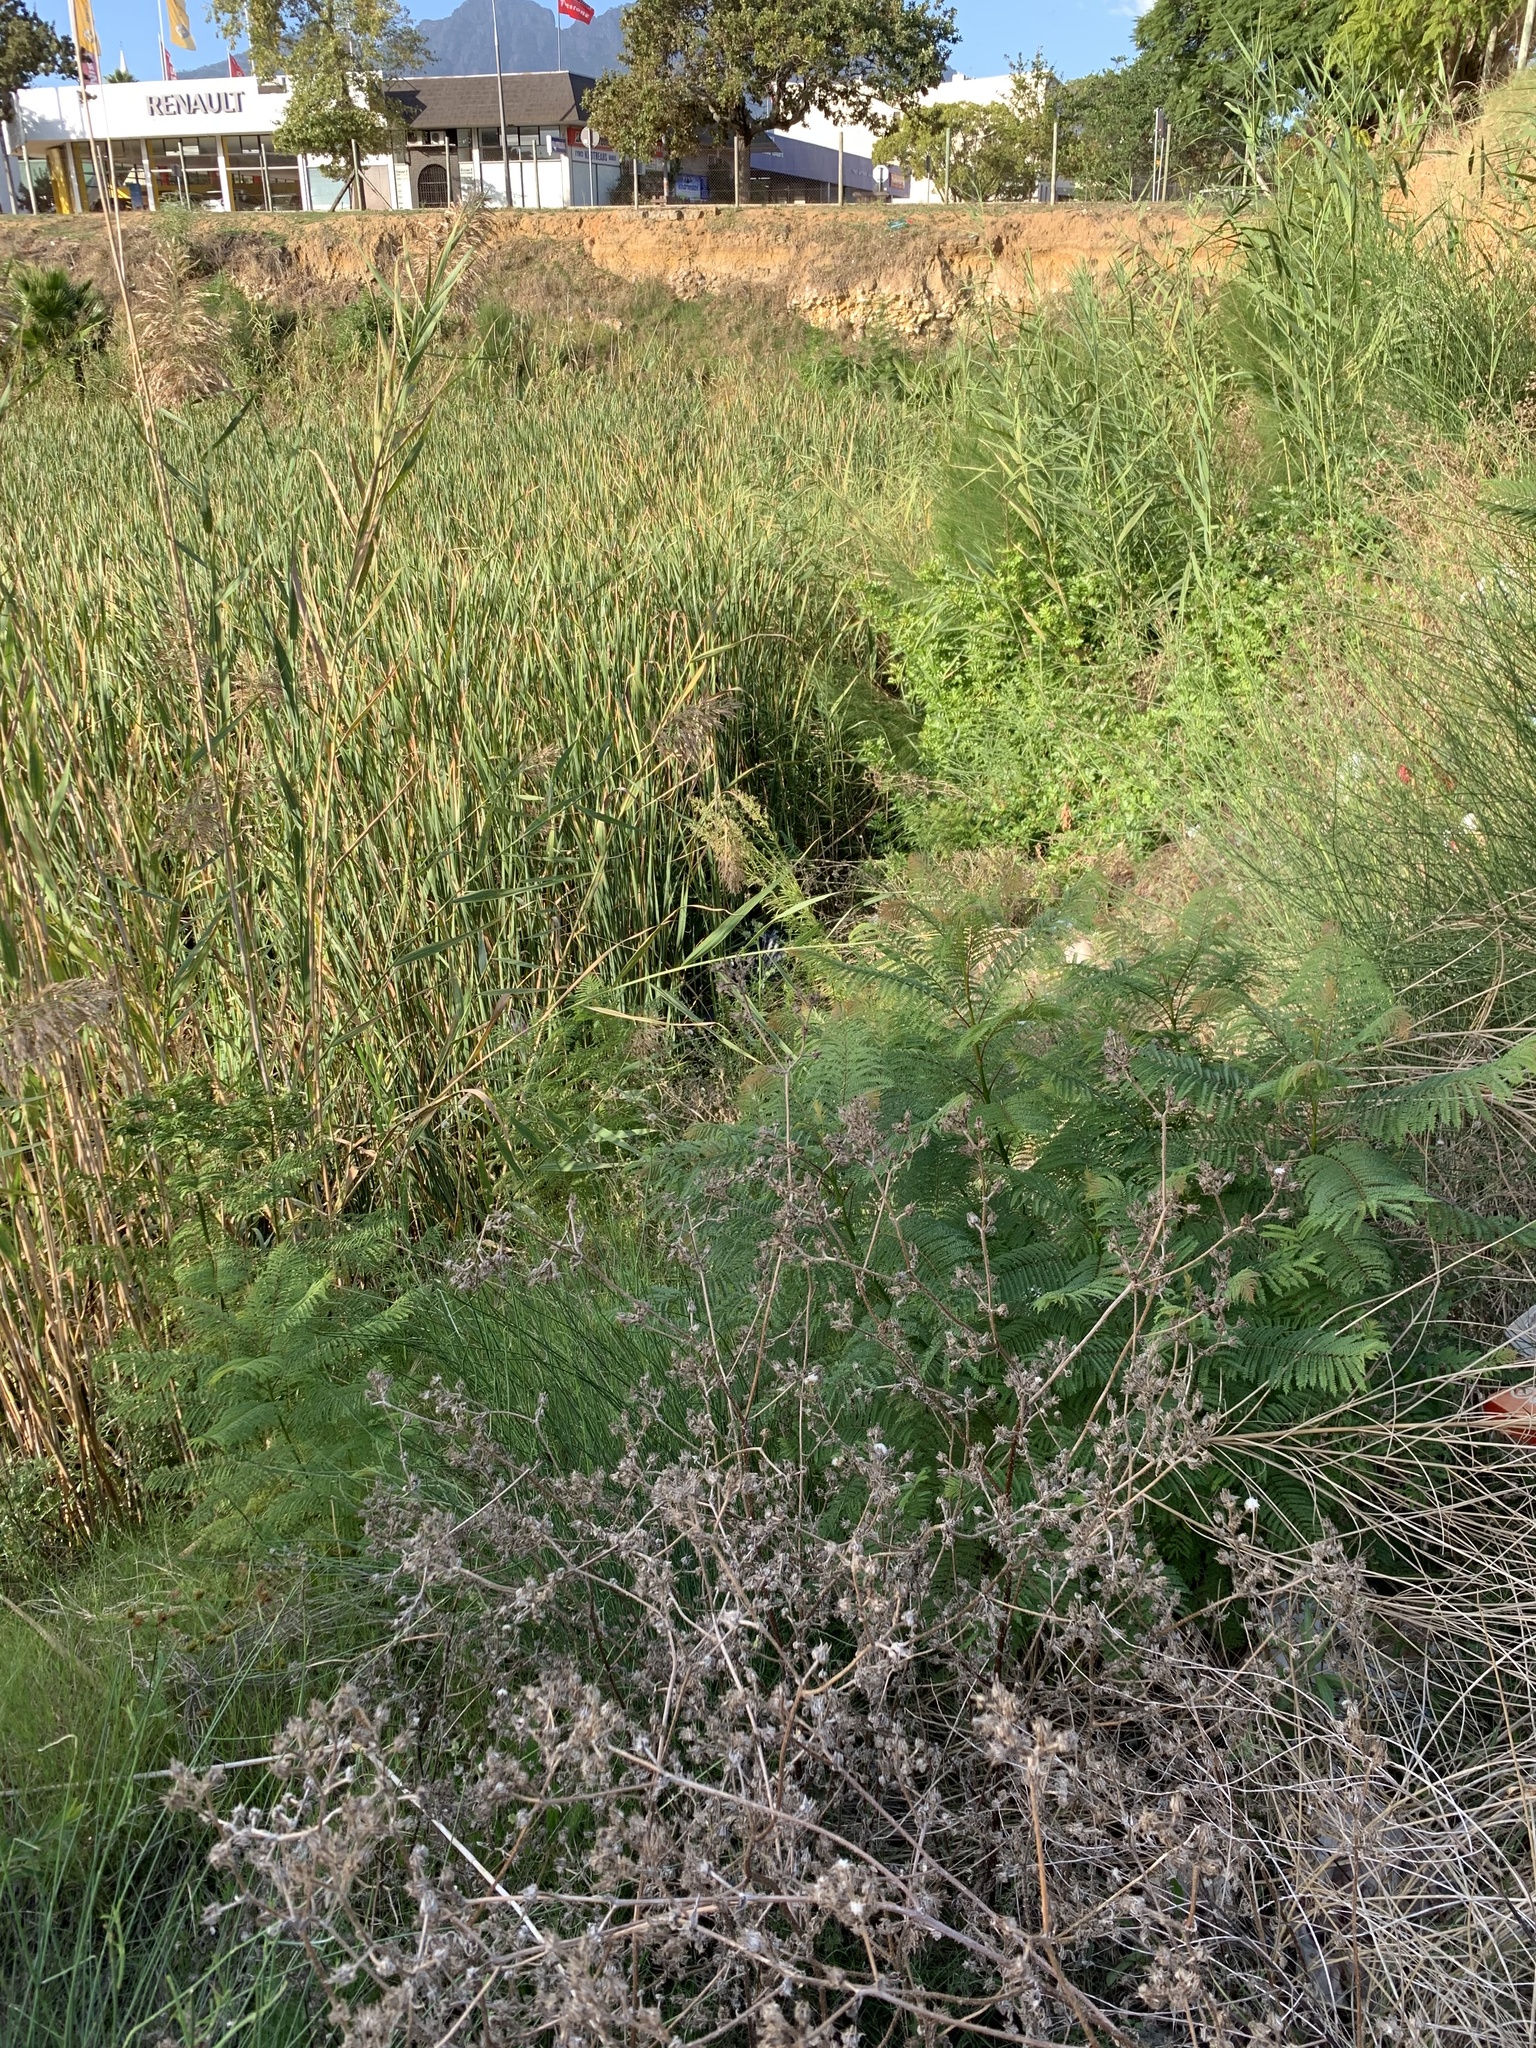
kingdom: Plantae
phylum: Tracheophyta
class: Magnoliopsida
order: Lamiales
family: Bignoniaceae
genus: Jacaranda
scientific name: Jacaranda mimosifolia
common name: Black poui
